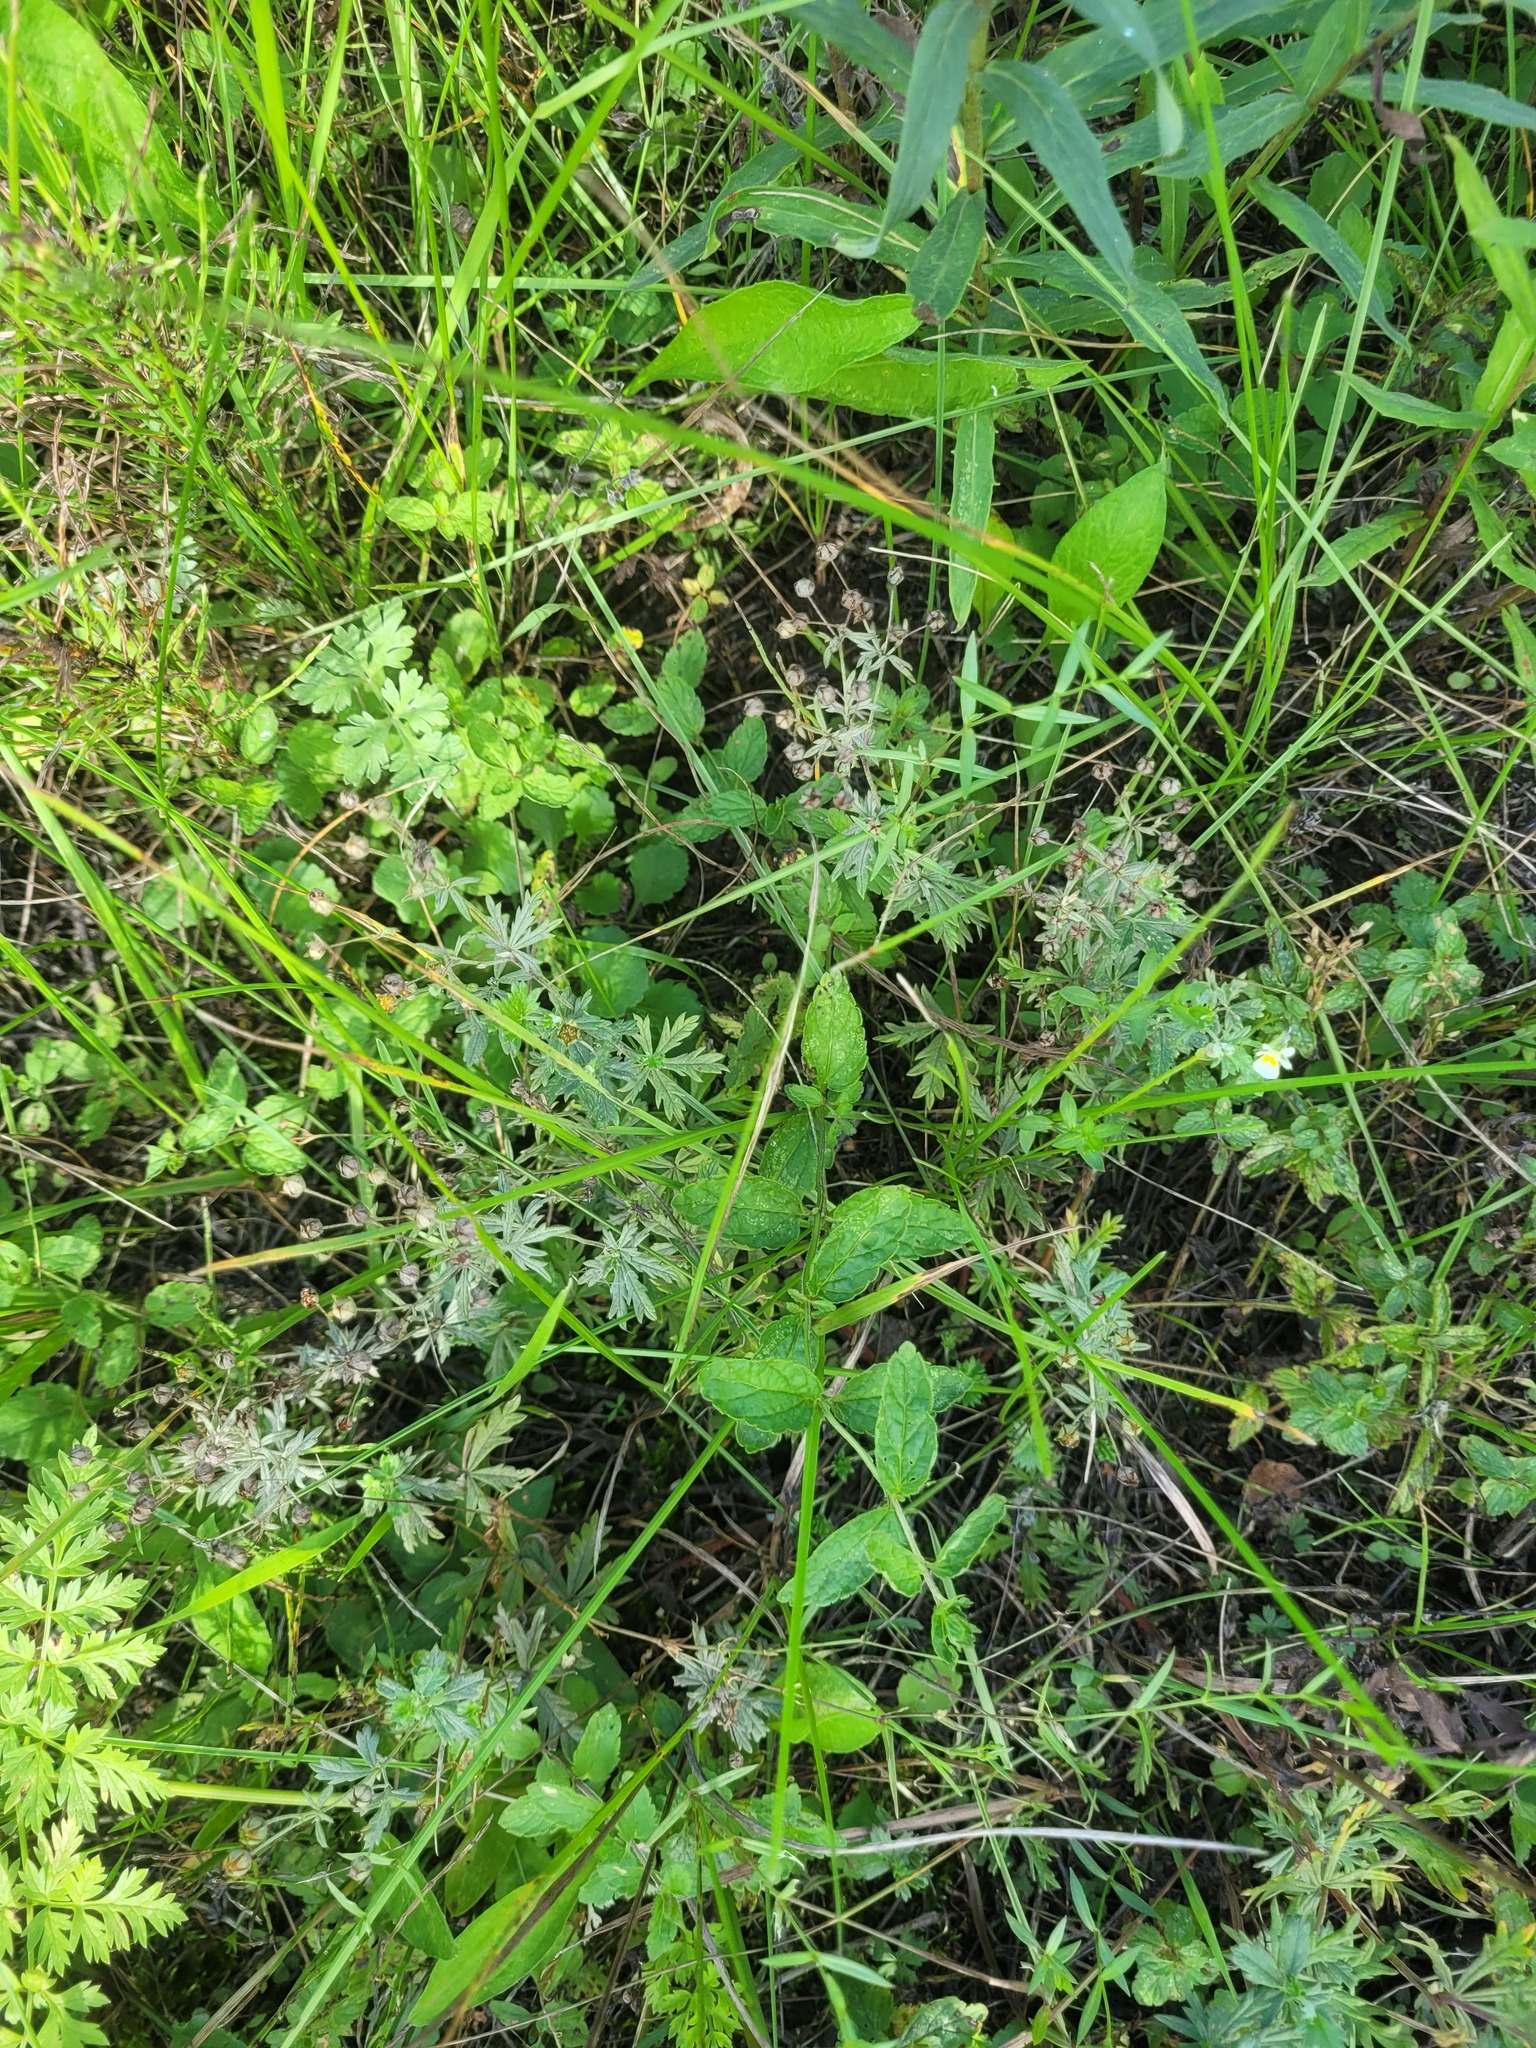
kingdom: Plantae
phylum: Tracheophyta
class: Magnoliopsida
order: Rosales
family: Rosaceae
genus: Potentilla
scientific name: Potentilla argentea
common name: Hoary cinquefoil
